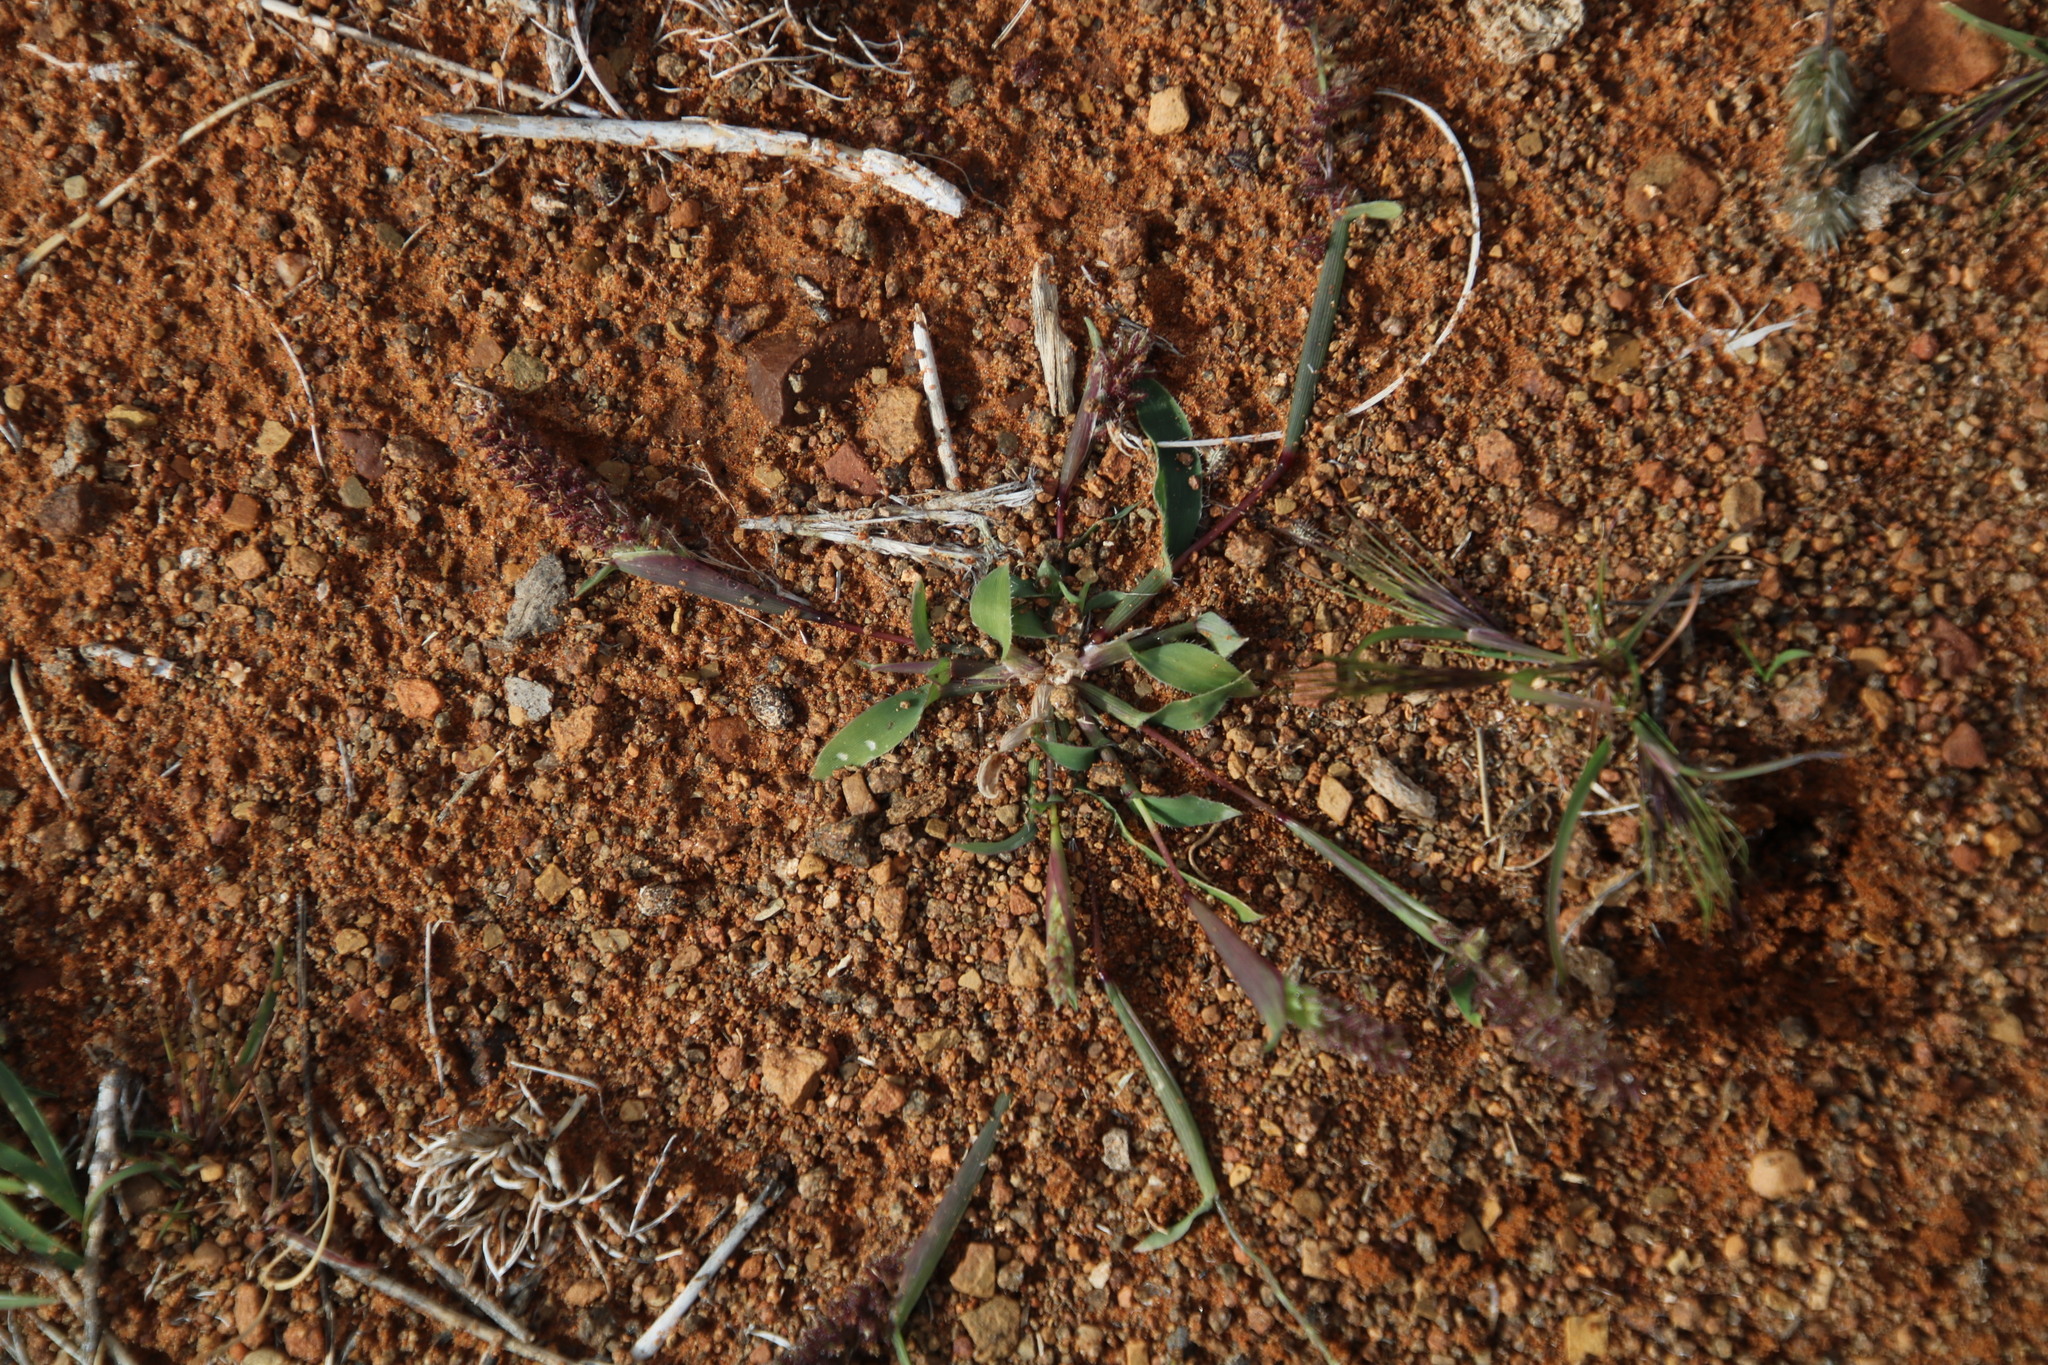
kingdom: Plantae
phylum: Tracheophyta
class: Liliopsida
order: Poales
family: Poaceae
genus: Tragus
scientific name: Tragus berteronianus
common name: African bur-grass
